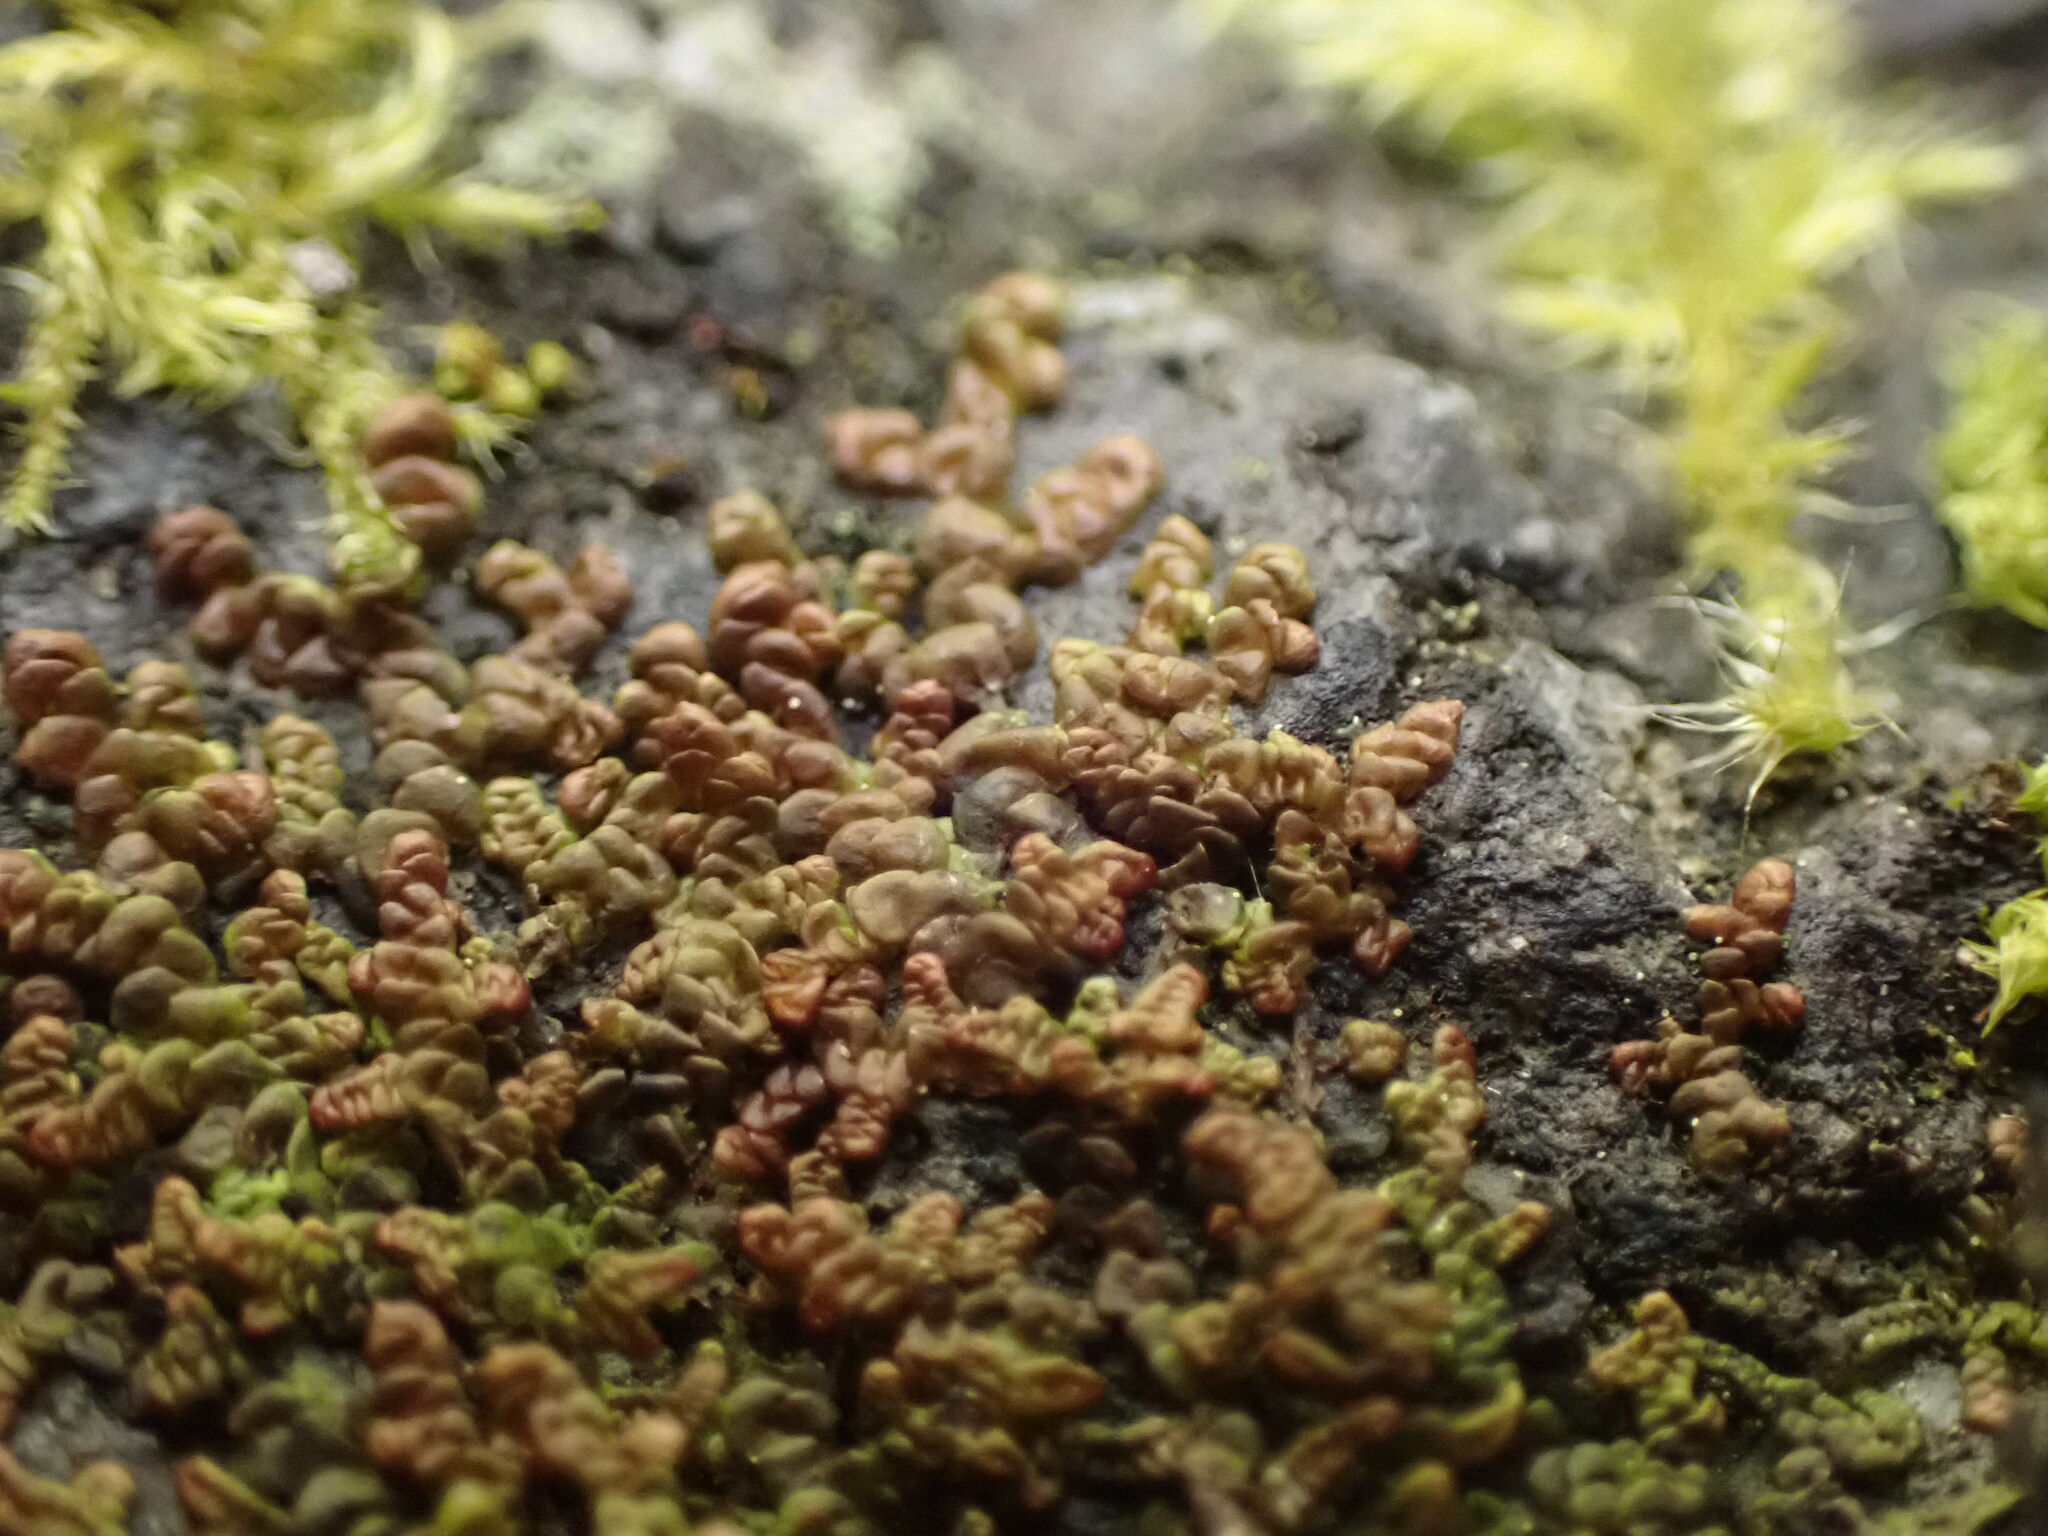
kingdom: Plantae
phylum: Marchantiophyta
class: Jungermanniopsida
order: Porellales
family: Frullaniaceae
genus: Frullania
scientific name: Frullania franciscana
